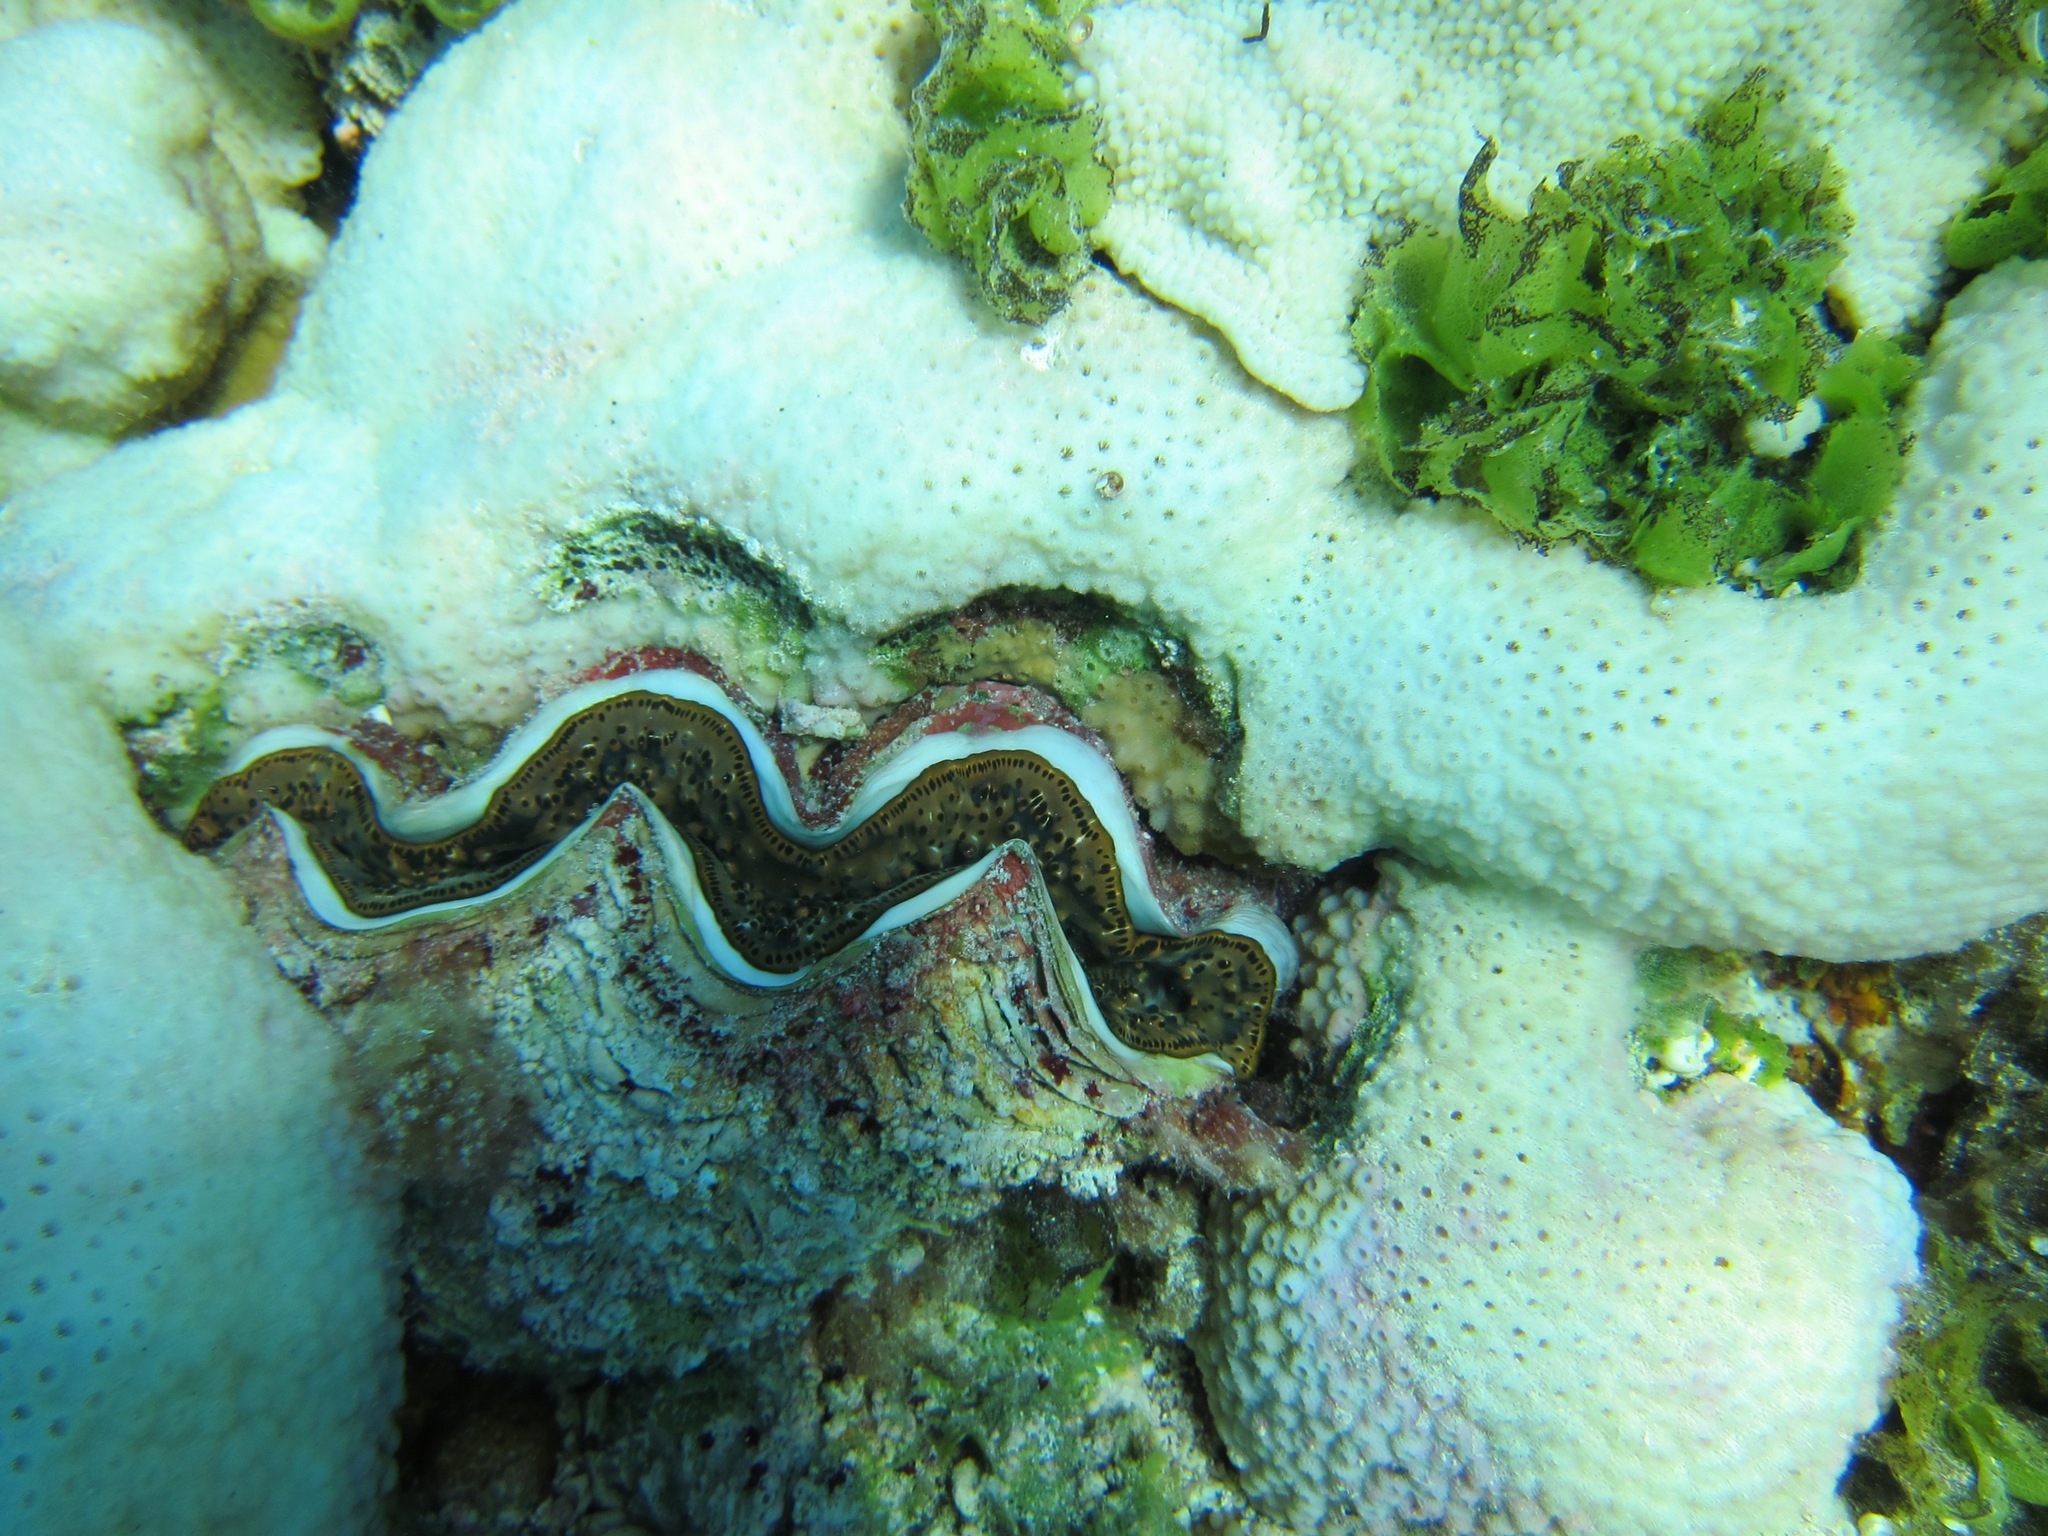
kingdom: Animalia
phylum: Mollusca
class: Bivalvia
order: Cardiida
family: Cardiidae
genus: Tridacna
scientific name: Tridacna maxima
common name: Small giant clam
